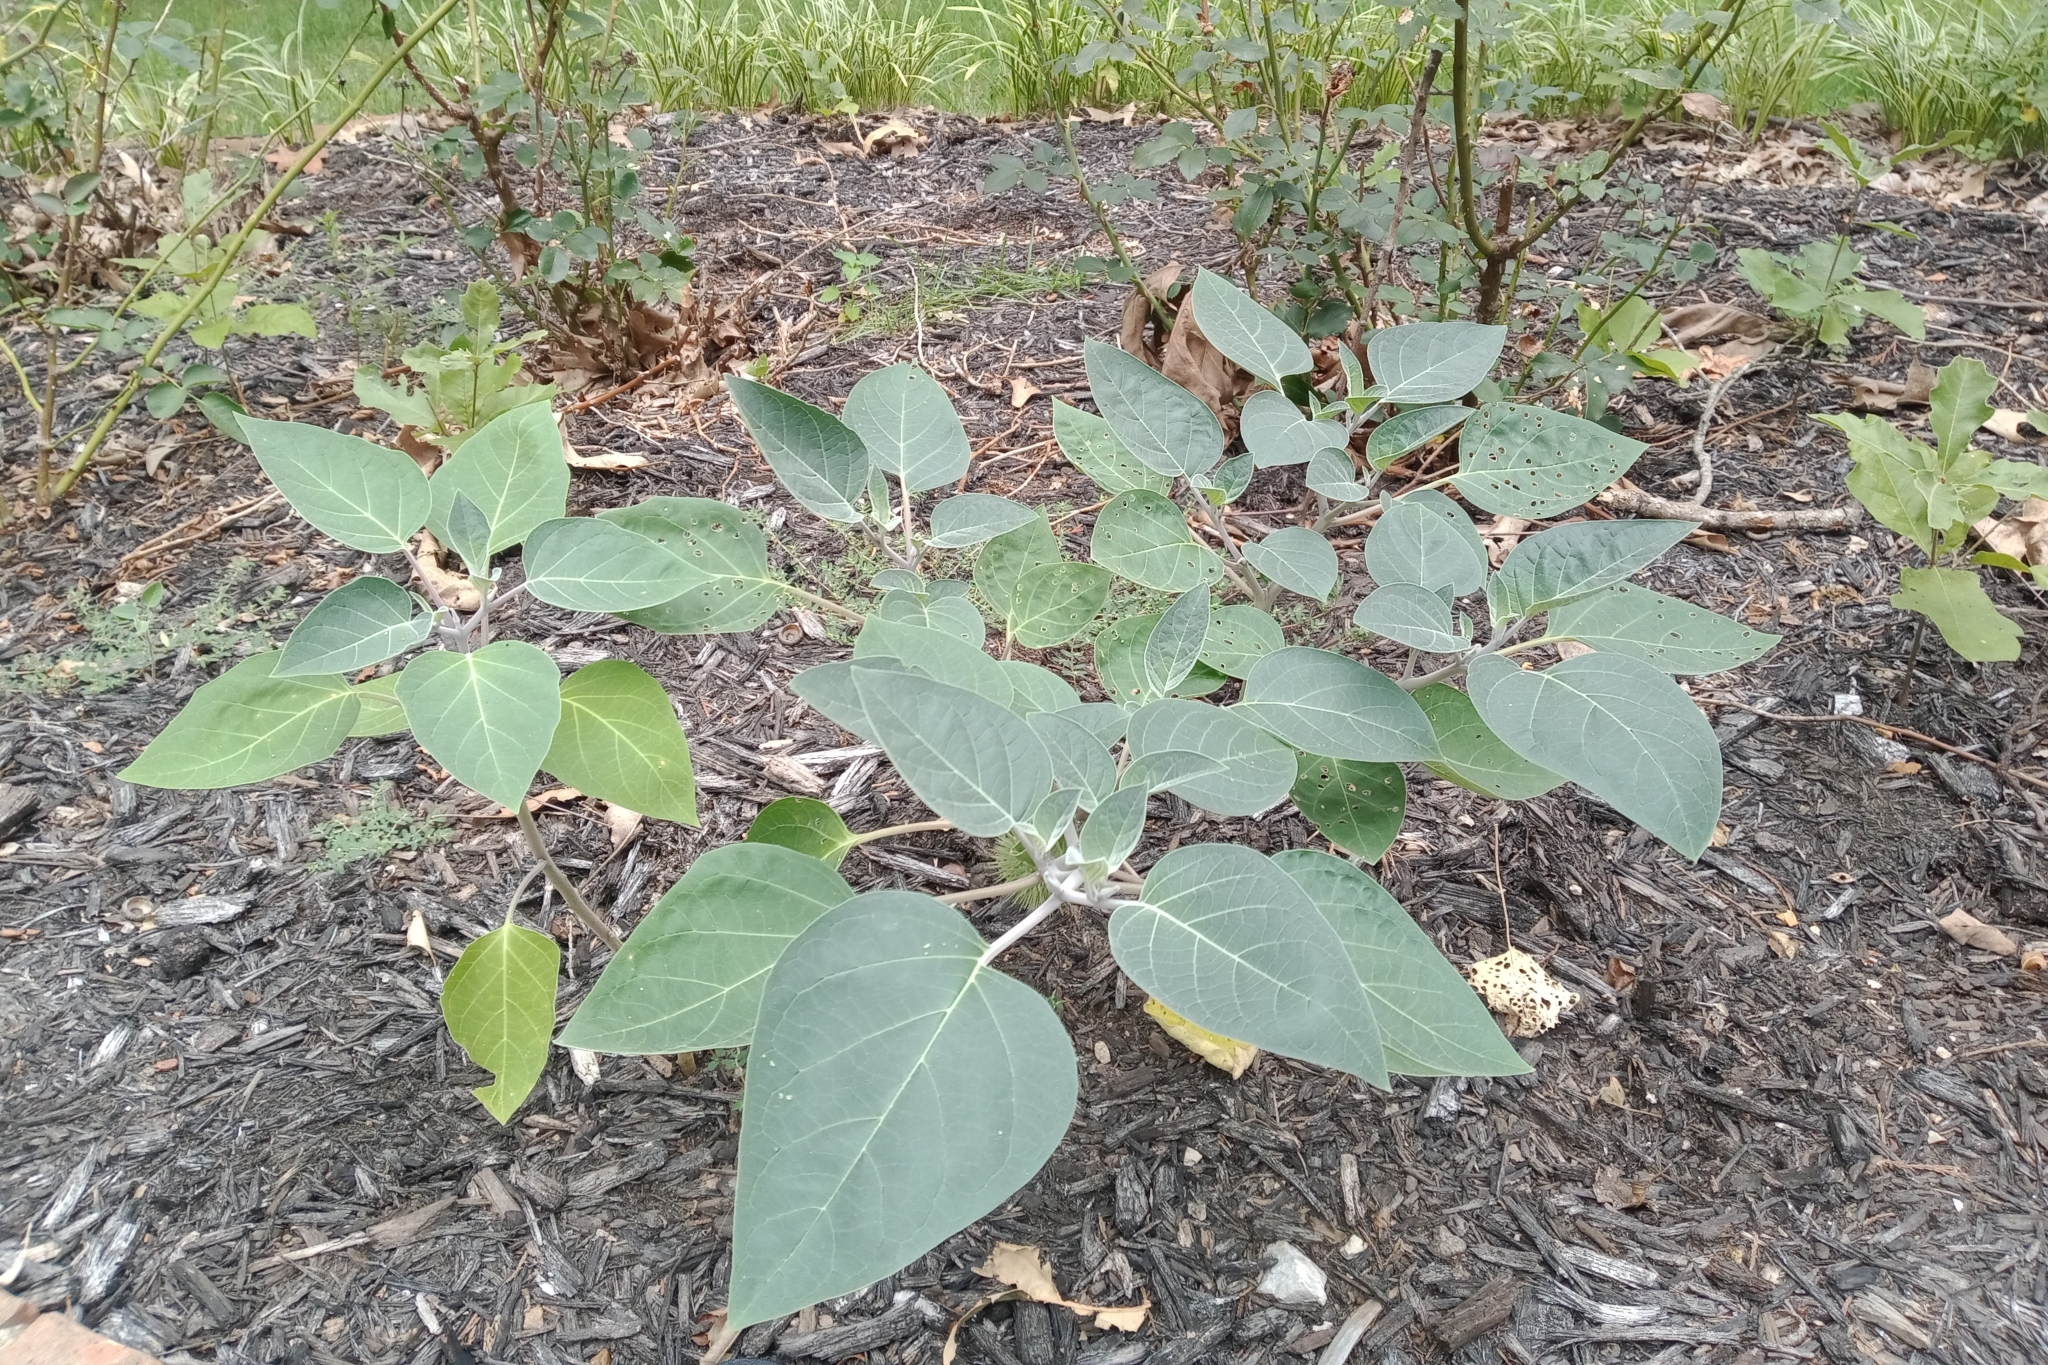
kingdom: Plantae
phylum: Tracheophyta
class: Magnoliopsida
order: Solanales
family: Solanaceae
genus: Datura
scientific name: Datura wrightii
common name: Sacred thorn-apple
